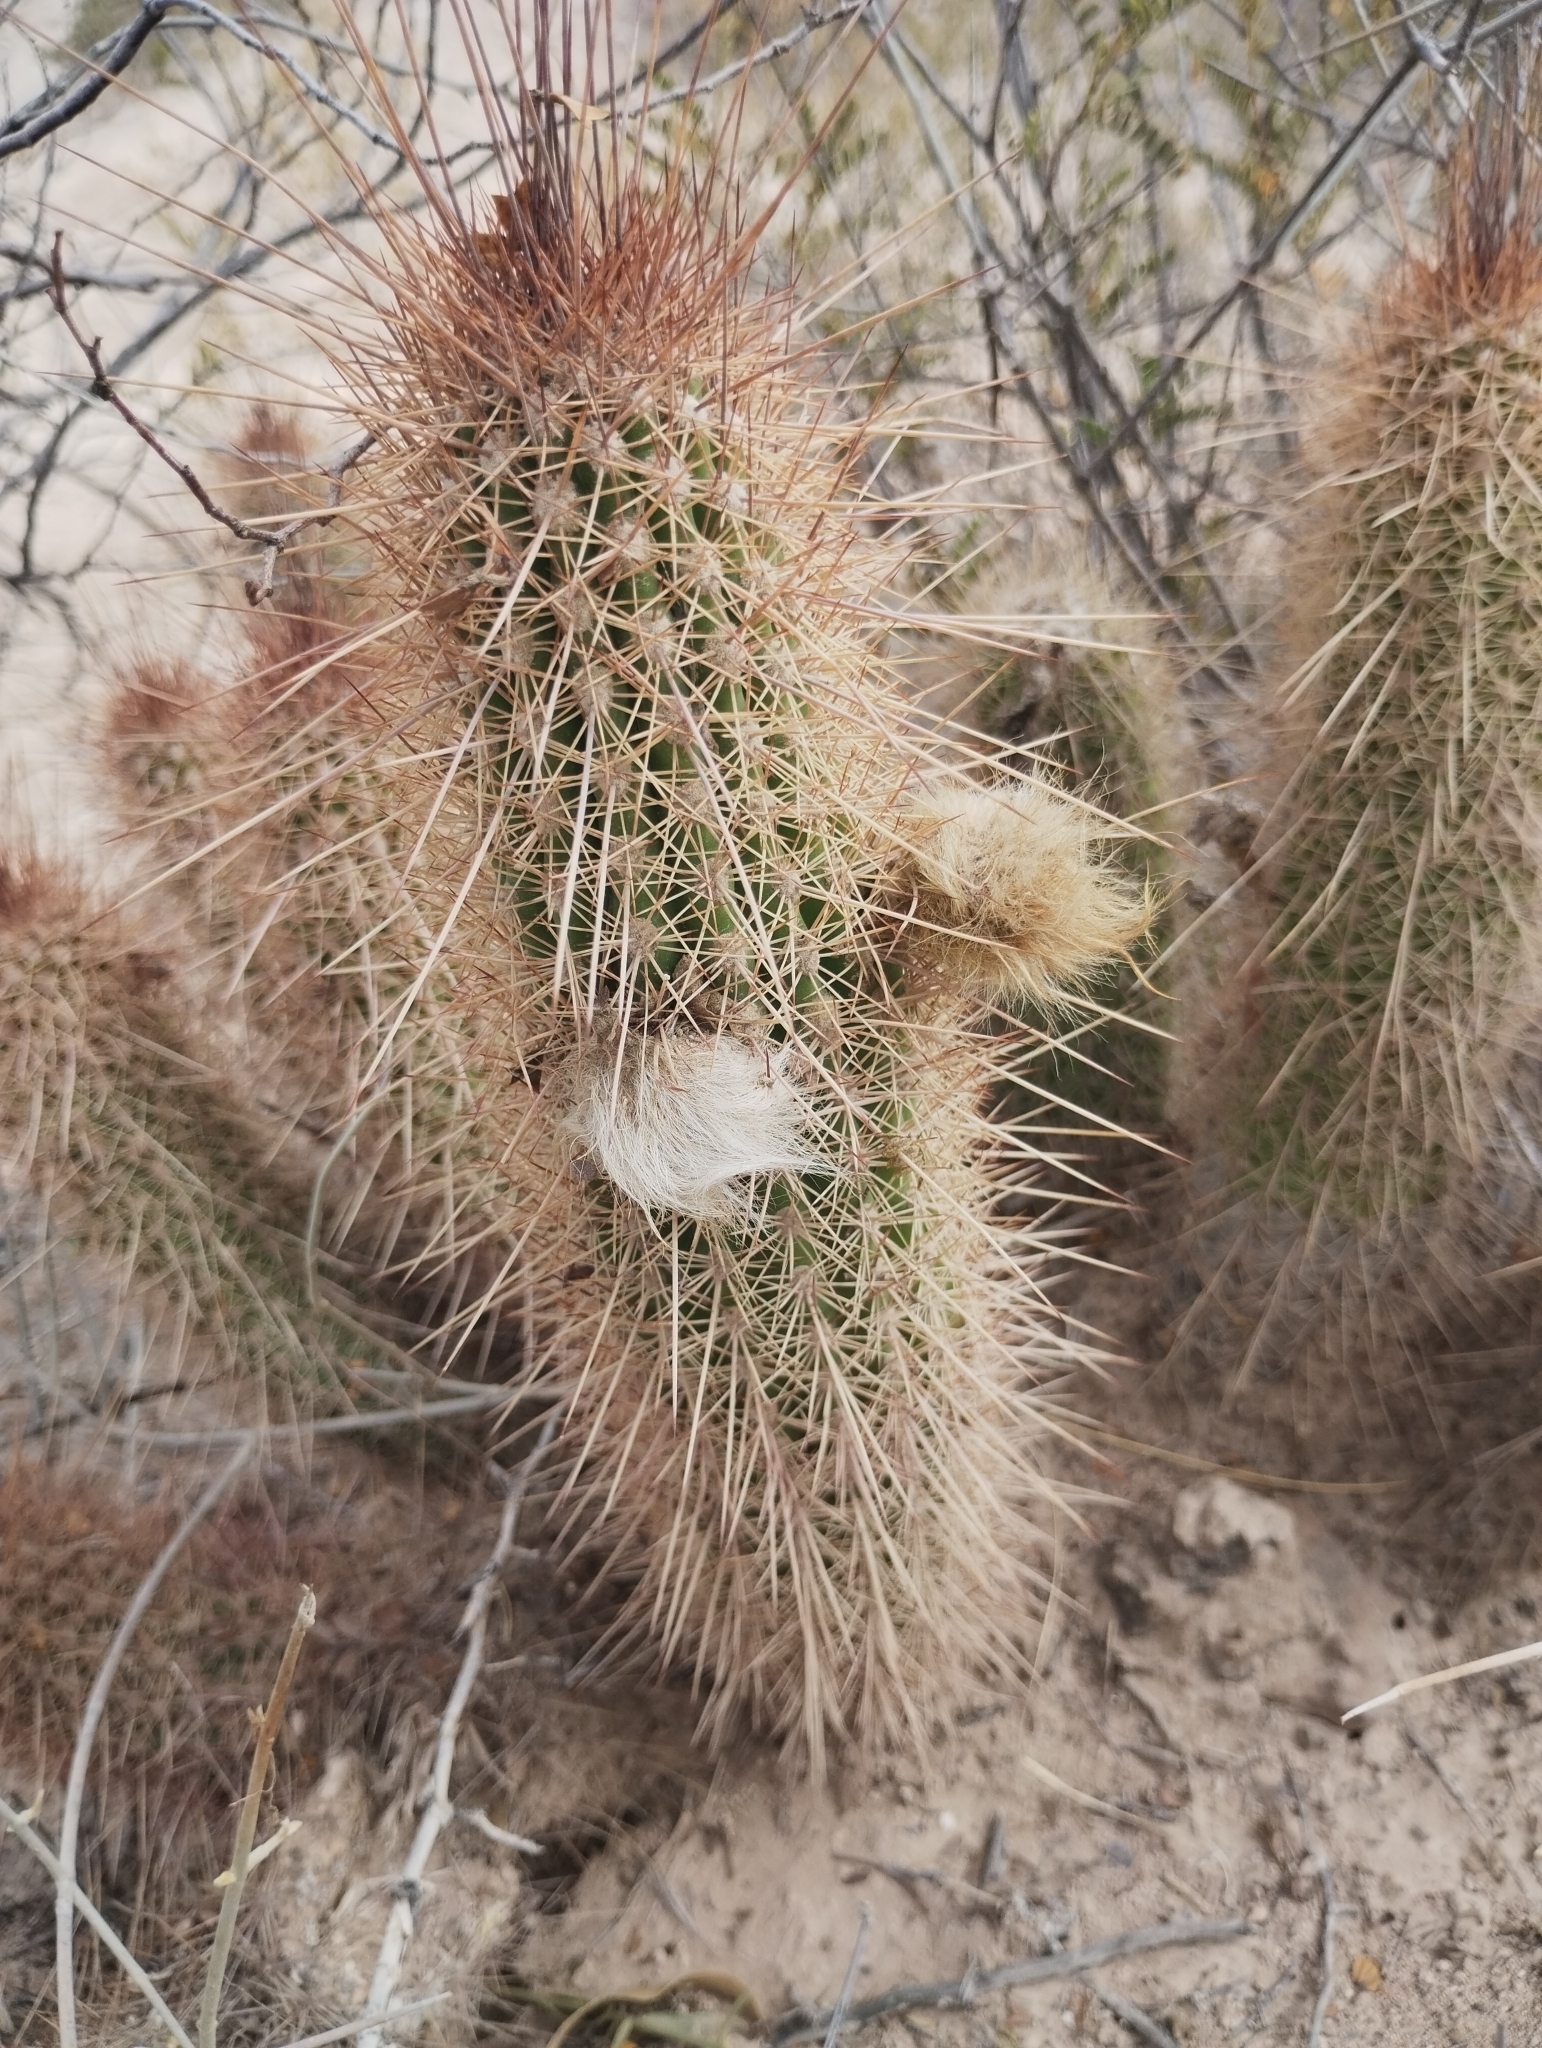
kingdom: Plantae
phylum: Tracheophyta
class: Magnoliopsida
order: Caryophyllales
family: Cactaceae
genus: Soehrensia
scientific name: Soehrensia strigosa
